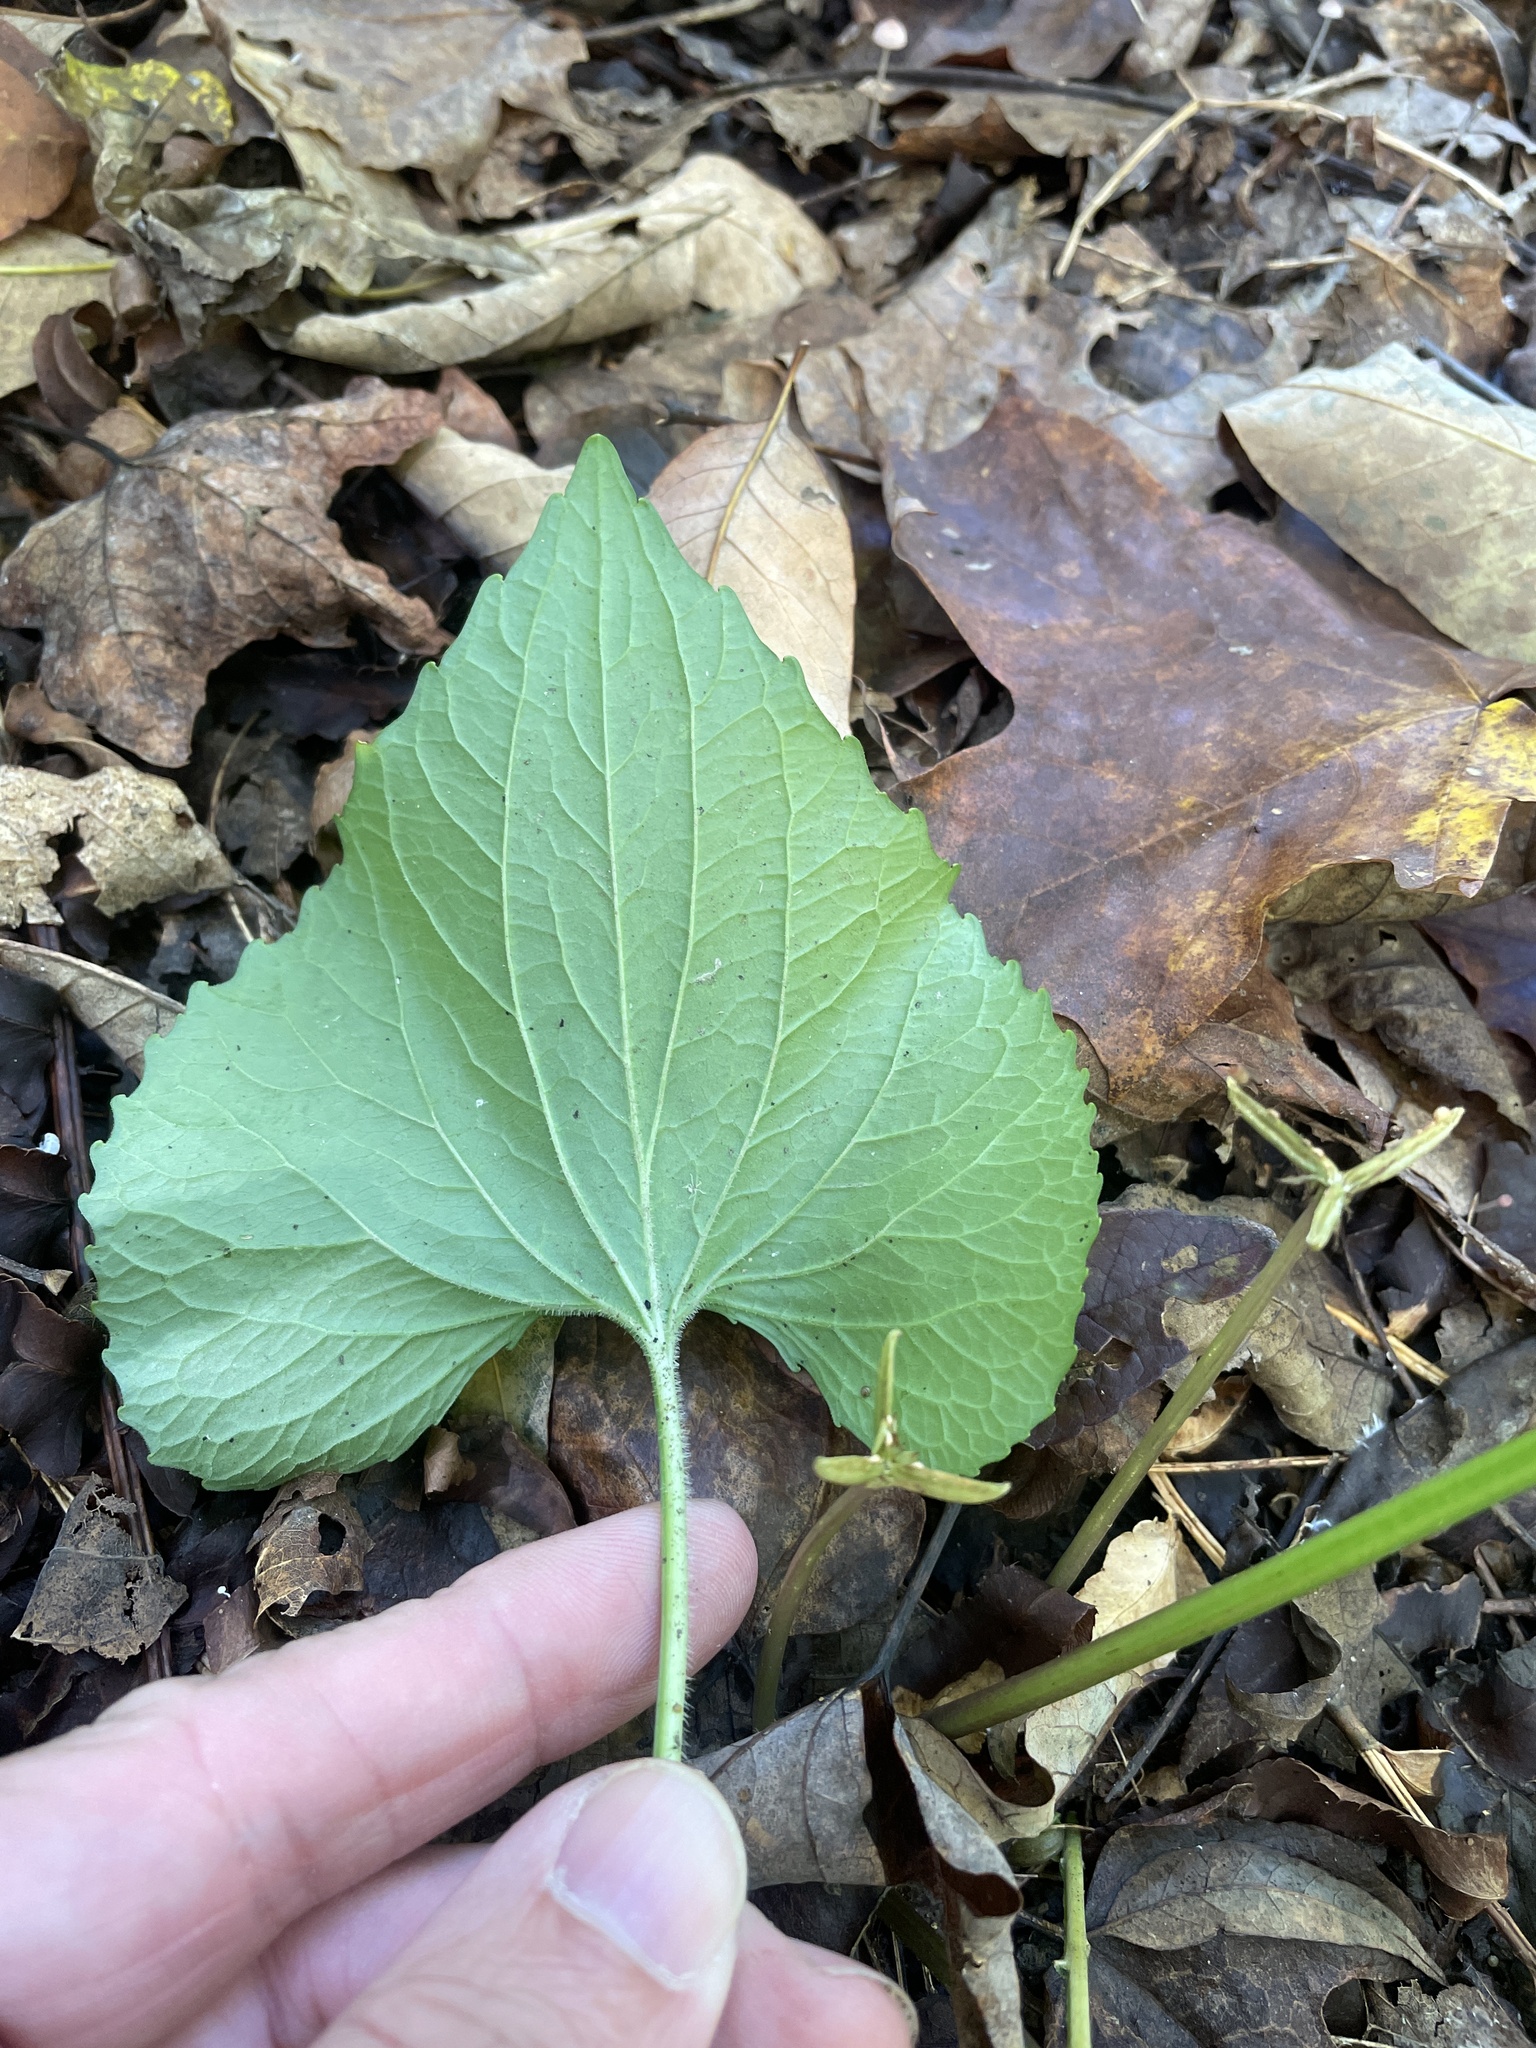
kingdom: Plantae
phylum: Tracheophyta
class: Magnoliopsida
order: Malpighiales
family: Violaceae
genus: Viola
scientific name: Viola sororia
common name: Dooryard violet
